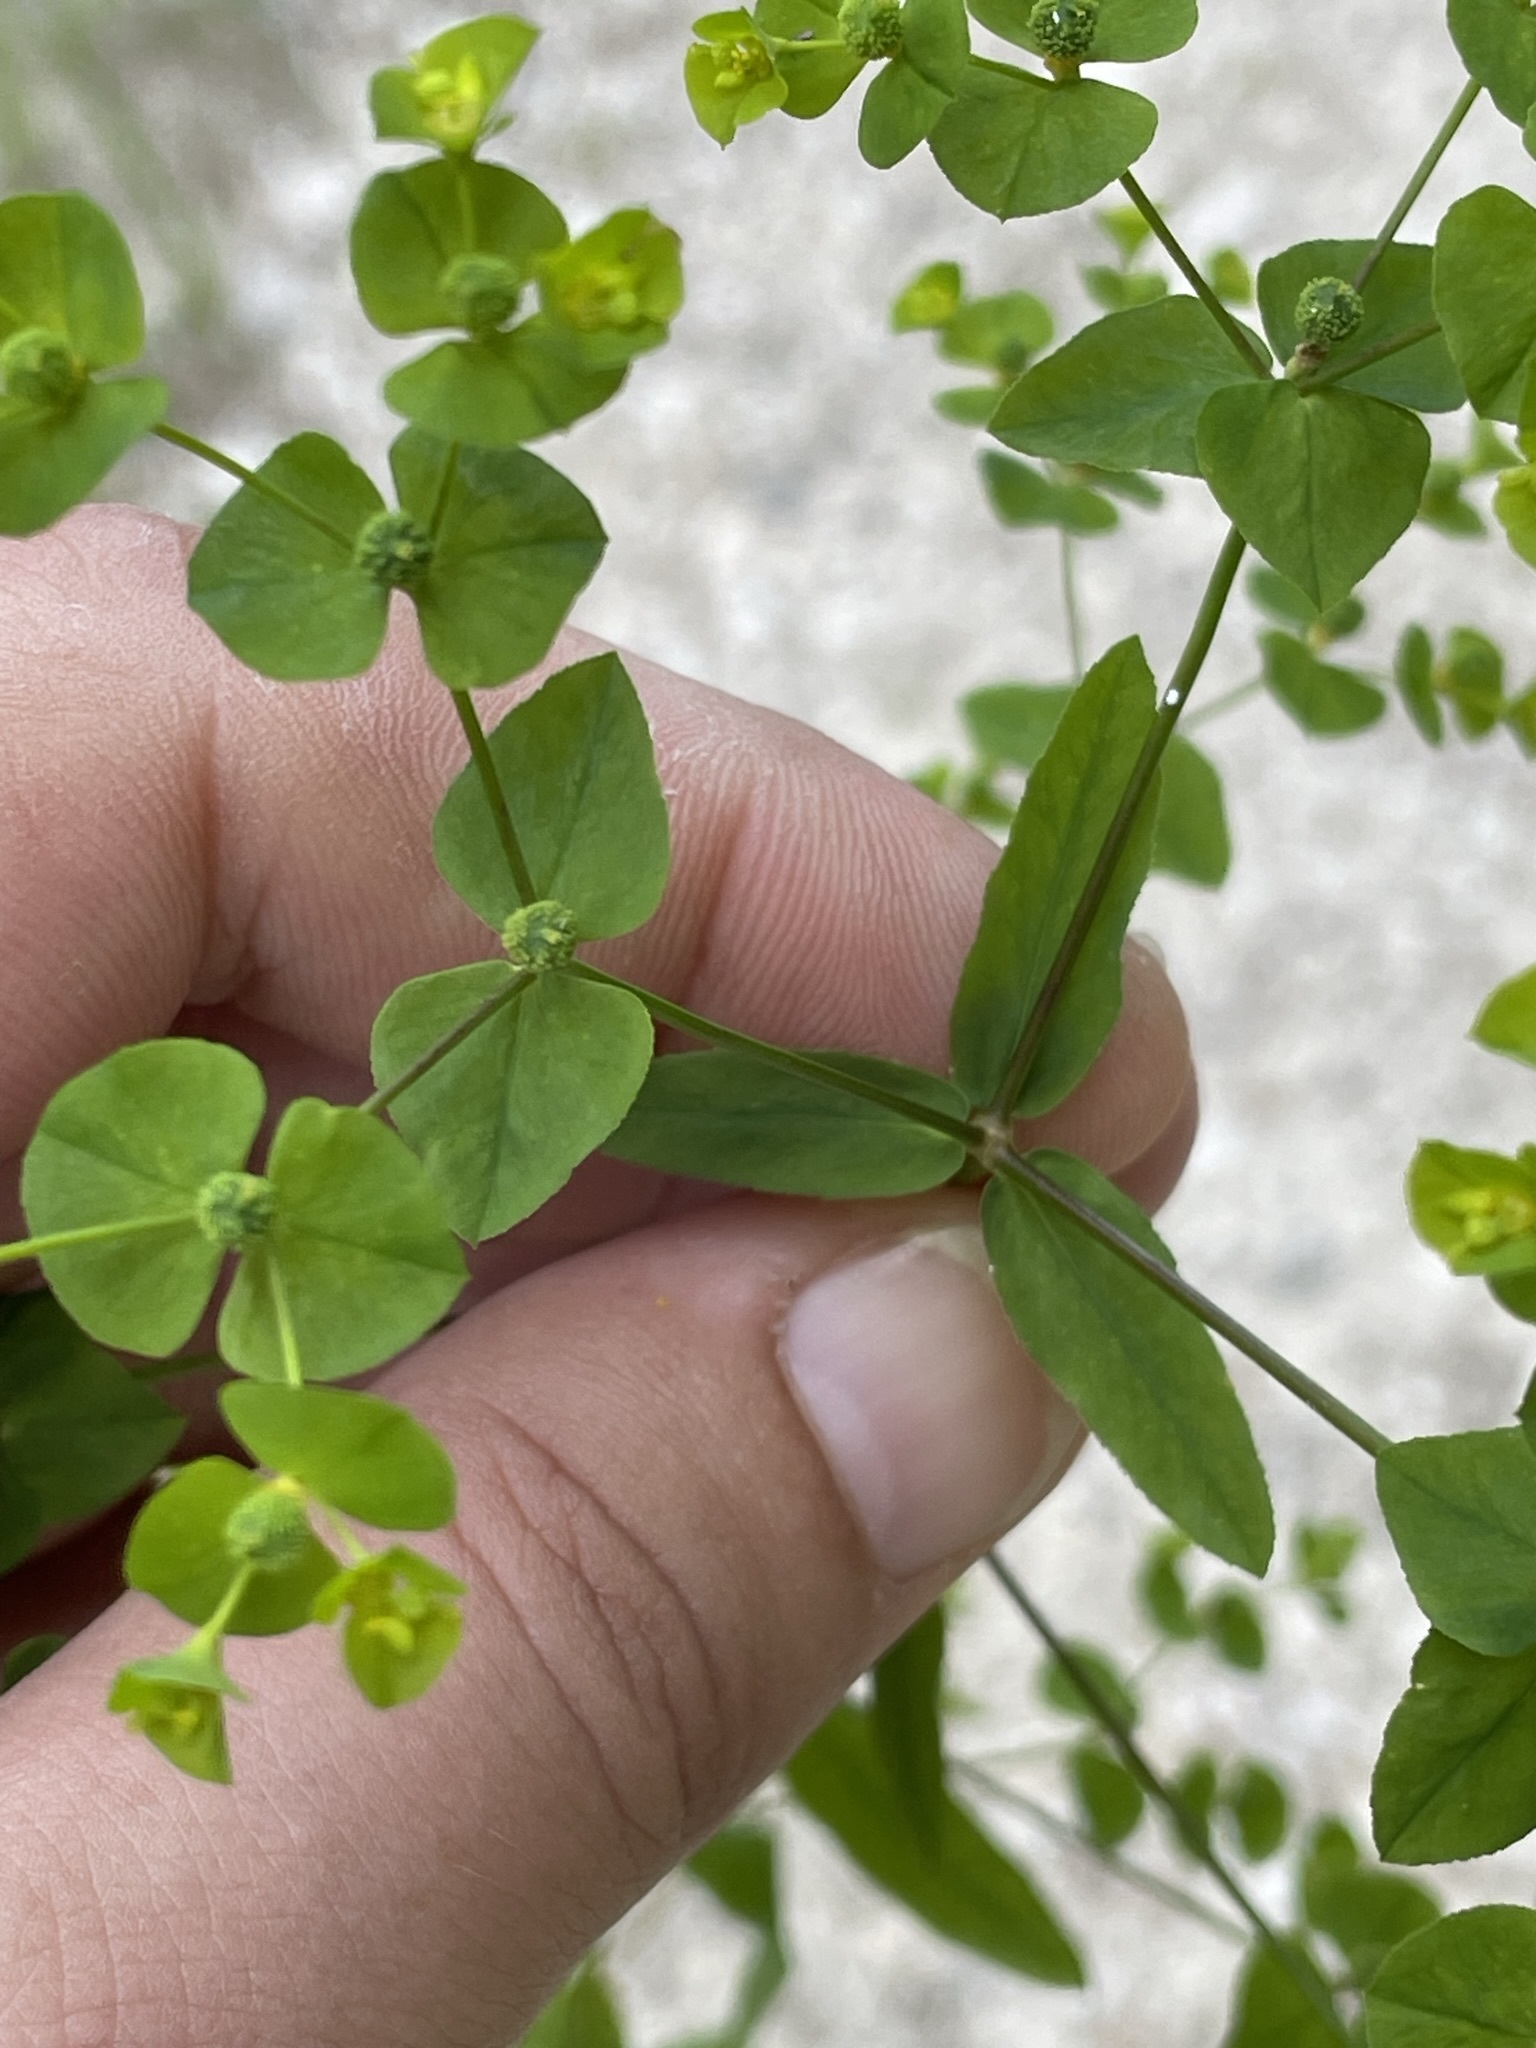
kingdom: Plantae
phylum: Tracheophyta
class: Magnoliopsida
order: Malpighiales
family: Euphorbiaceae
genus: Euphorbia
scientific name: Euphorbia stricta
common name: Upright spurge
